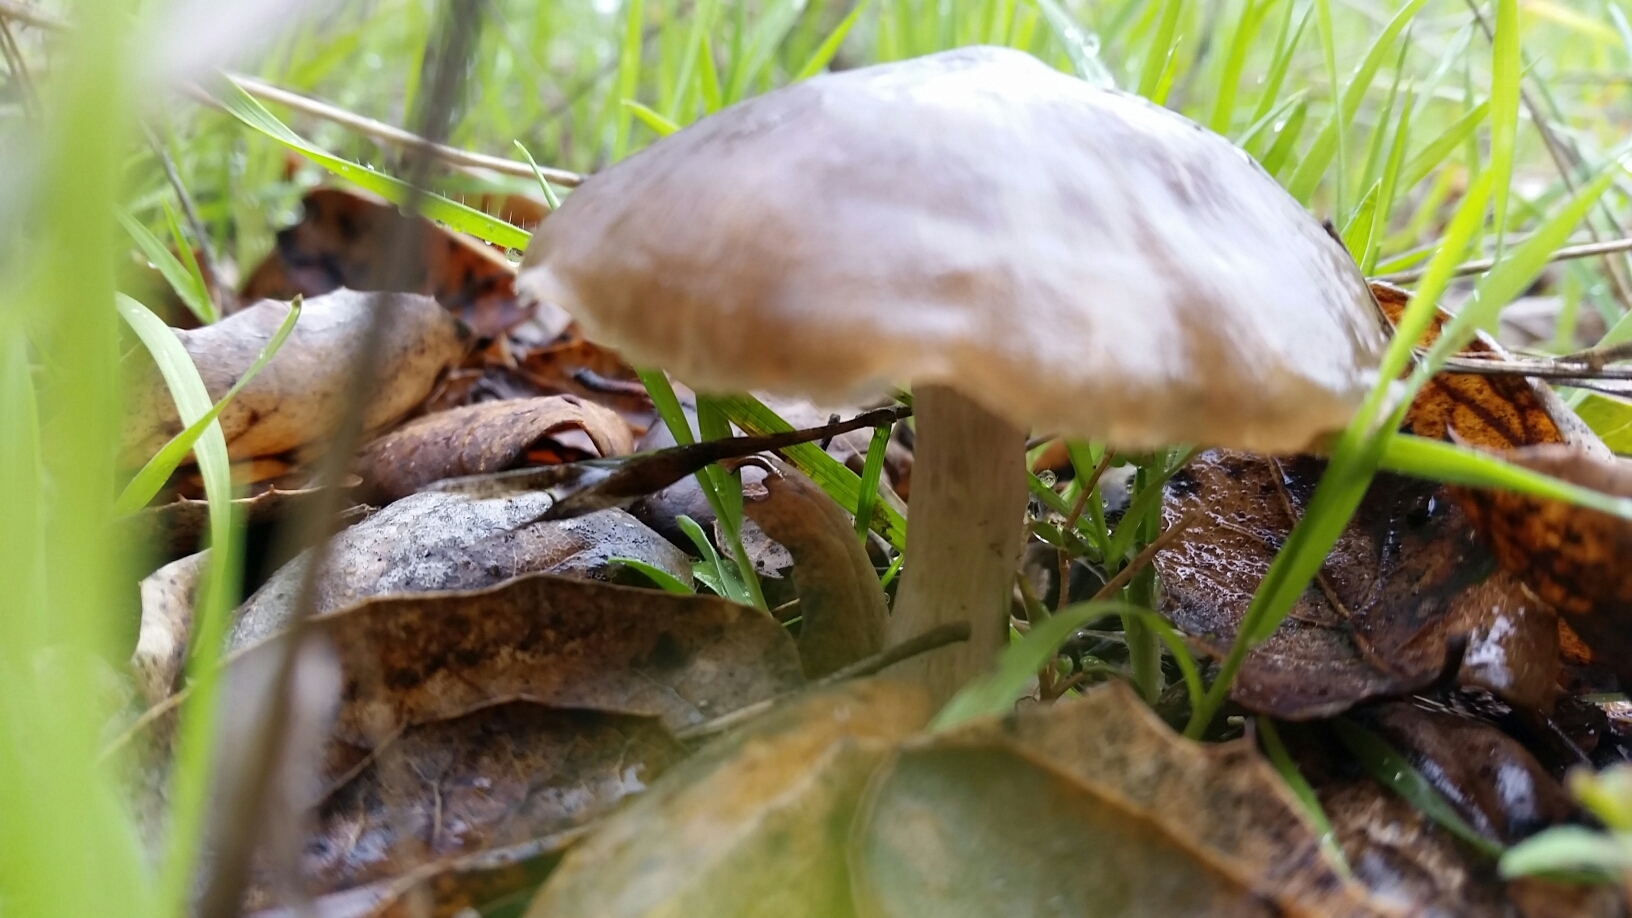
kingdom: Fungi
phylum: Basidiomycota
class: Agaricomycetes
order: Agaricales
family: Pluteaceae
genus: Pluteus
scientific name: Pluteus exilis
